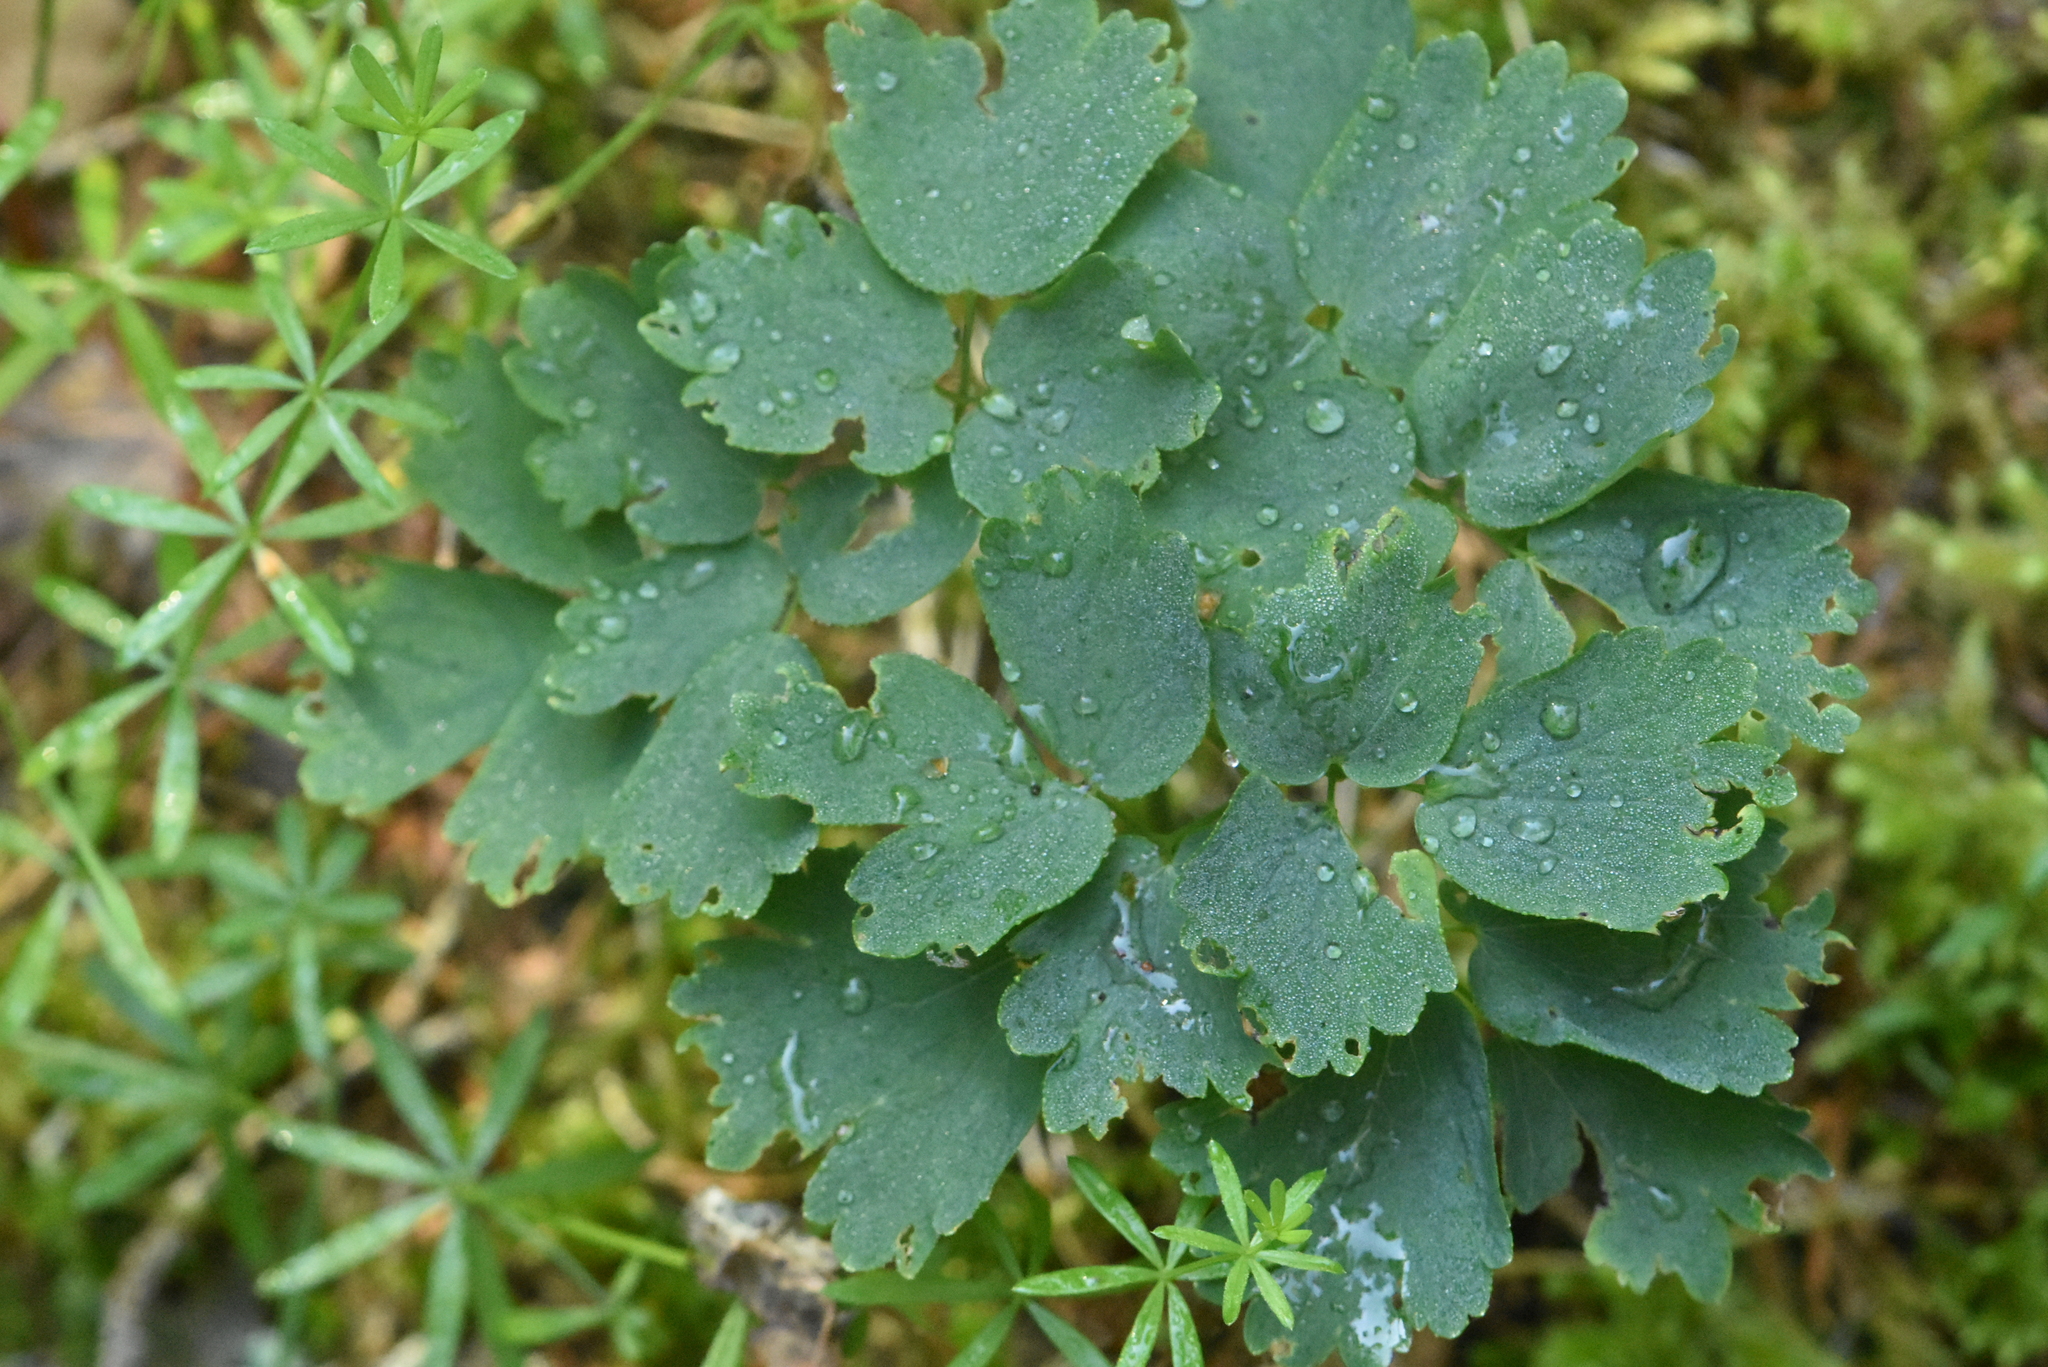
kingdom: Plantae
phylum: Tracheophyta
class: Magnoliopsida
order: Ranunculales
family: Ranunculaceae
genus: Thalictrum
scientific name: Thalictrum aquilegiifolium
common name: French meadow-rue
